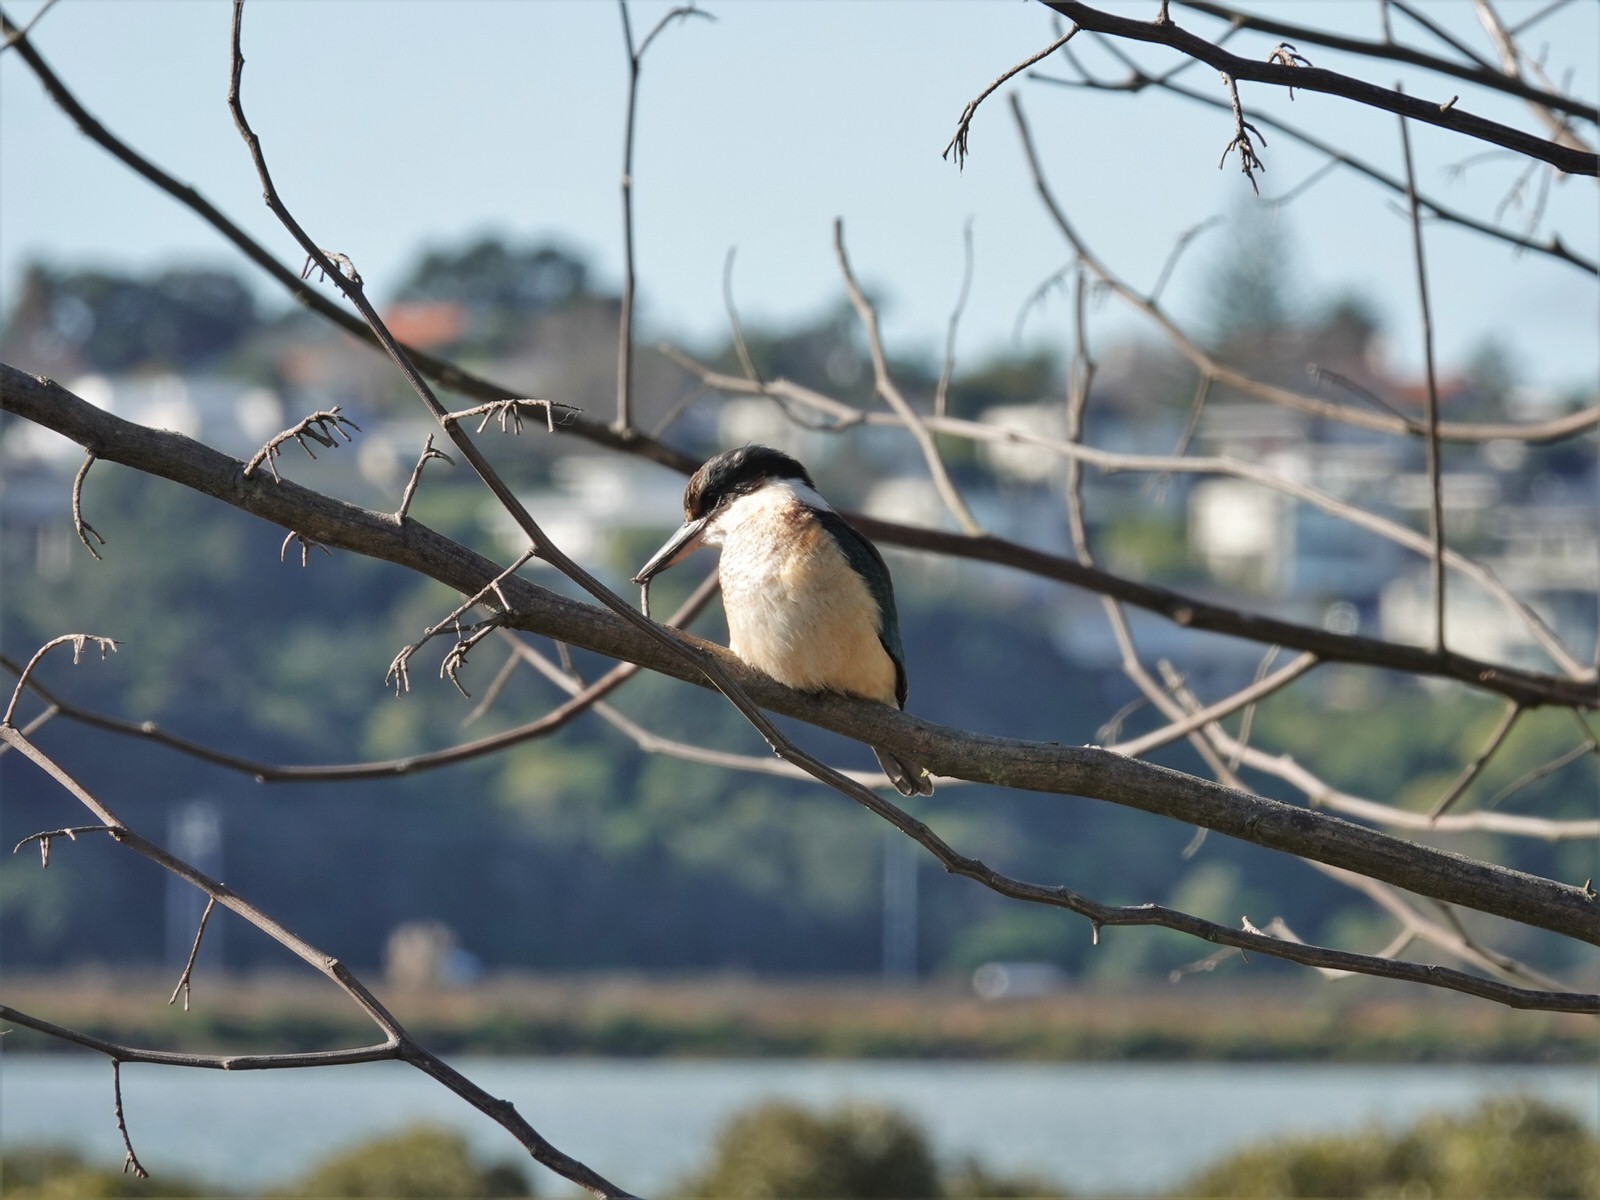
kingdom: Animalia
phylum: Chordata
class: Aves
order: Coraciiformes
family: Alcedinidae
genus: Todiramphus
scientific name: Todiramphus sanctus
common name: Sacred kingfisher
